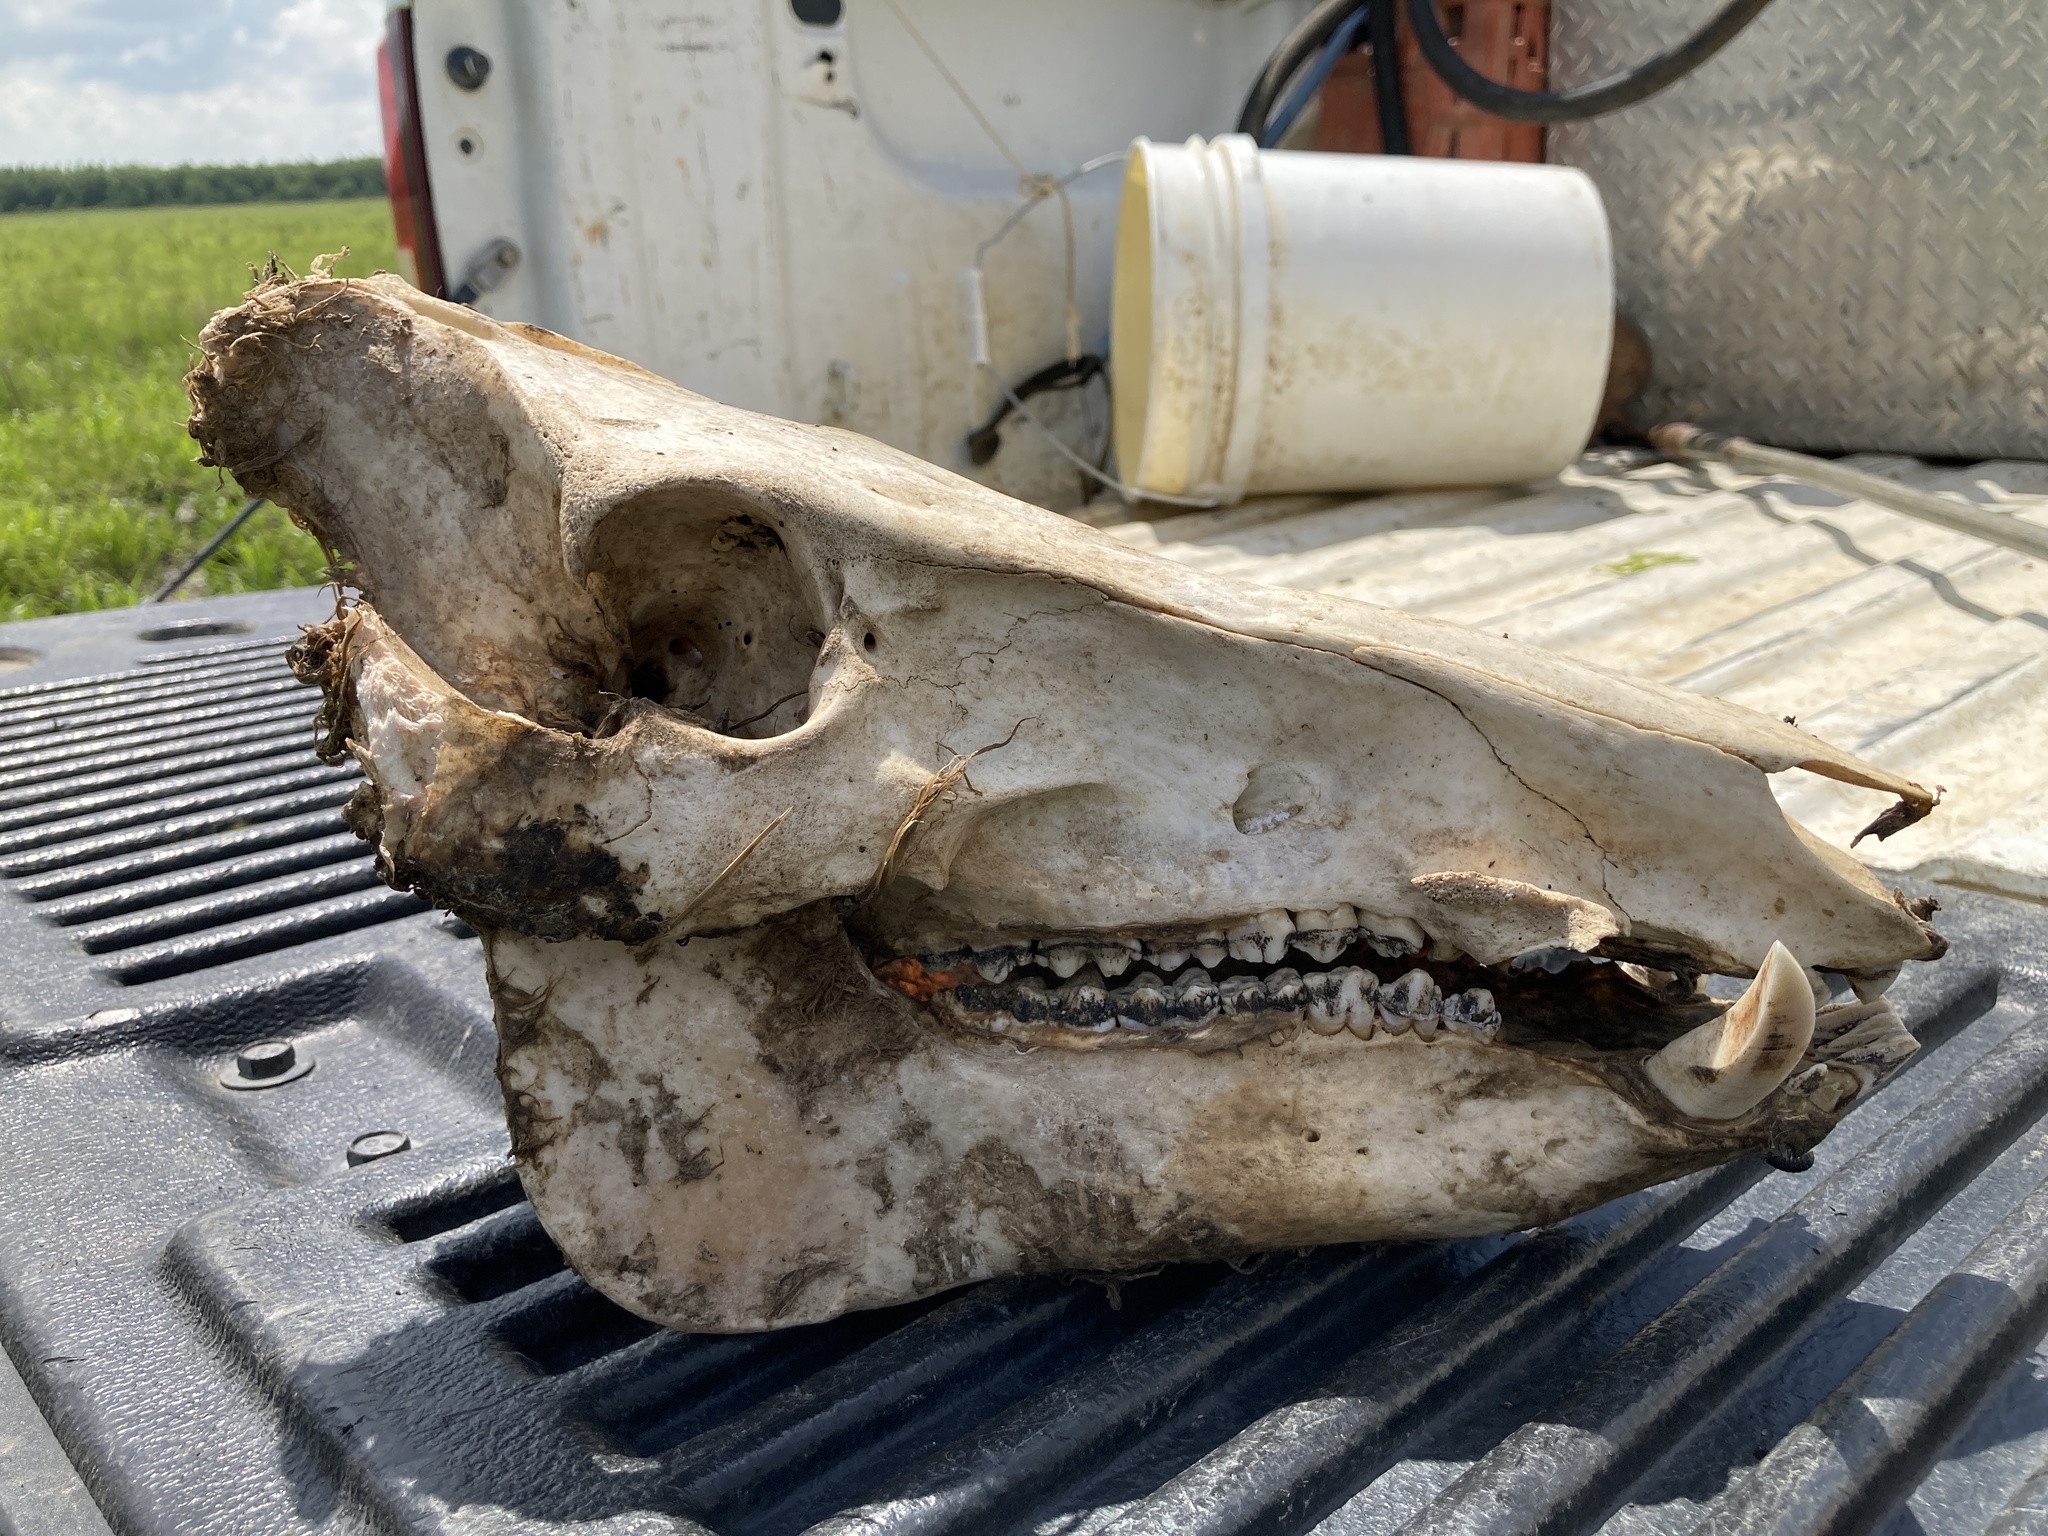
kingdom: Animalia
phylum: Chordata
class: Mammalia
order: Artiodactyla
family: Suidae
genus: Sus
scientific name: Sus scrofa
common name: Wild boar
